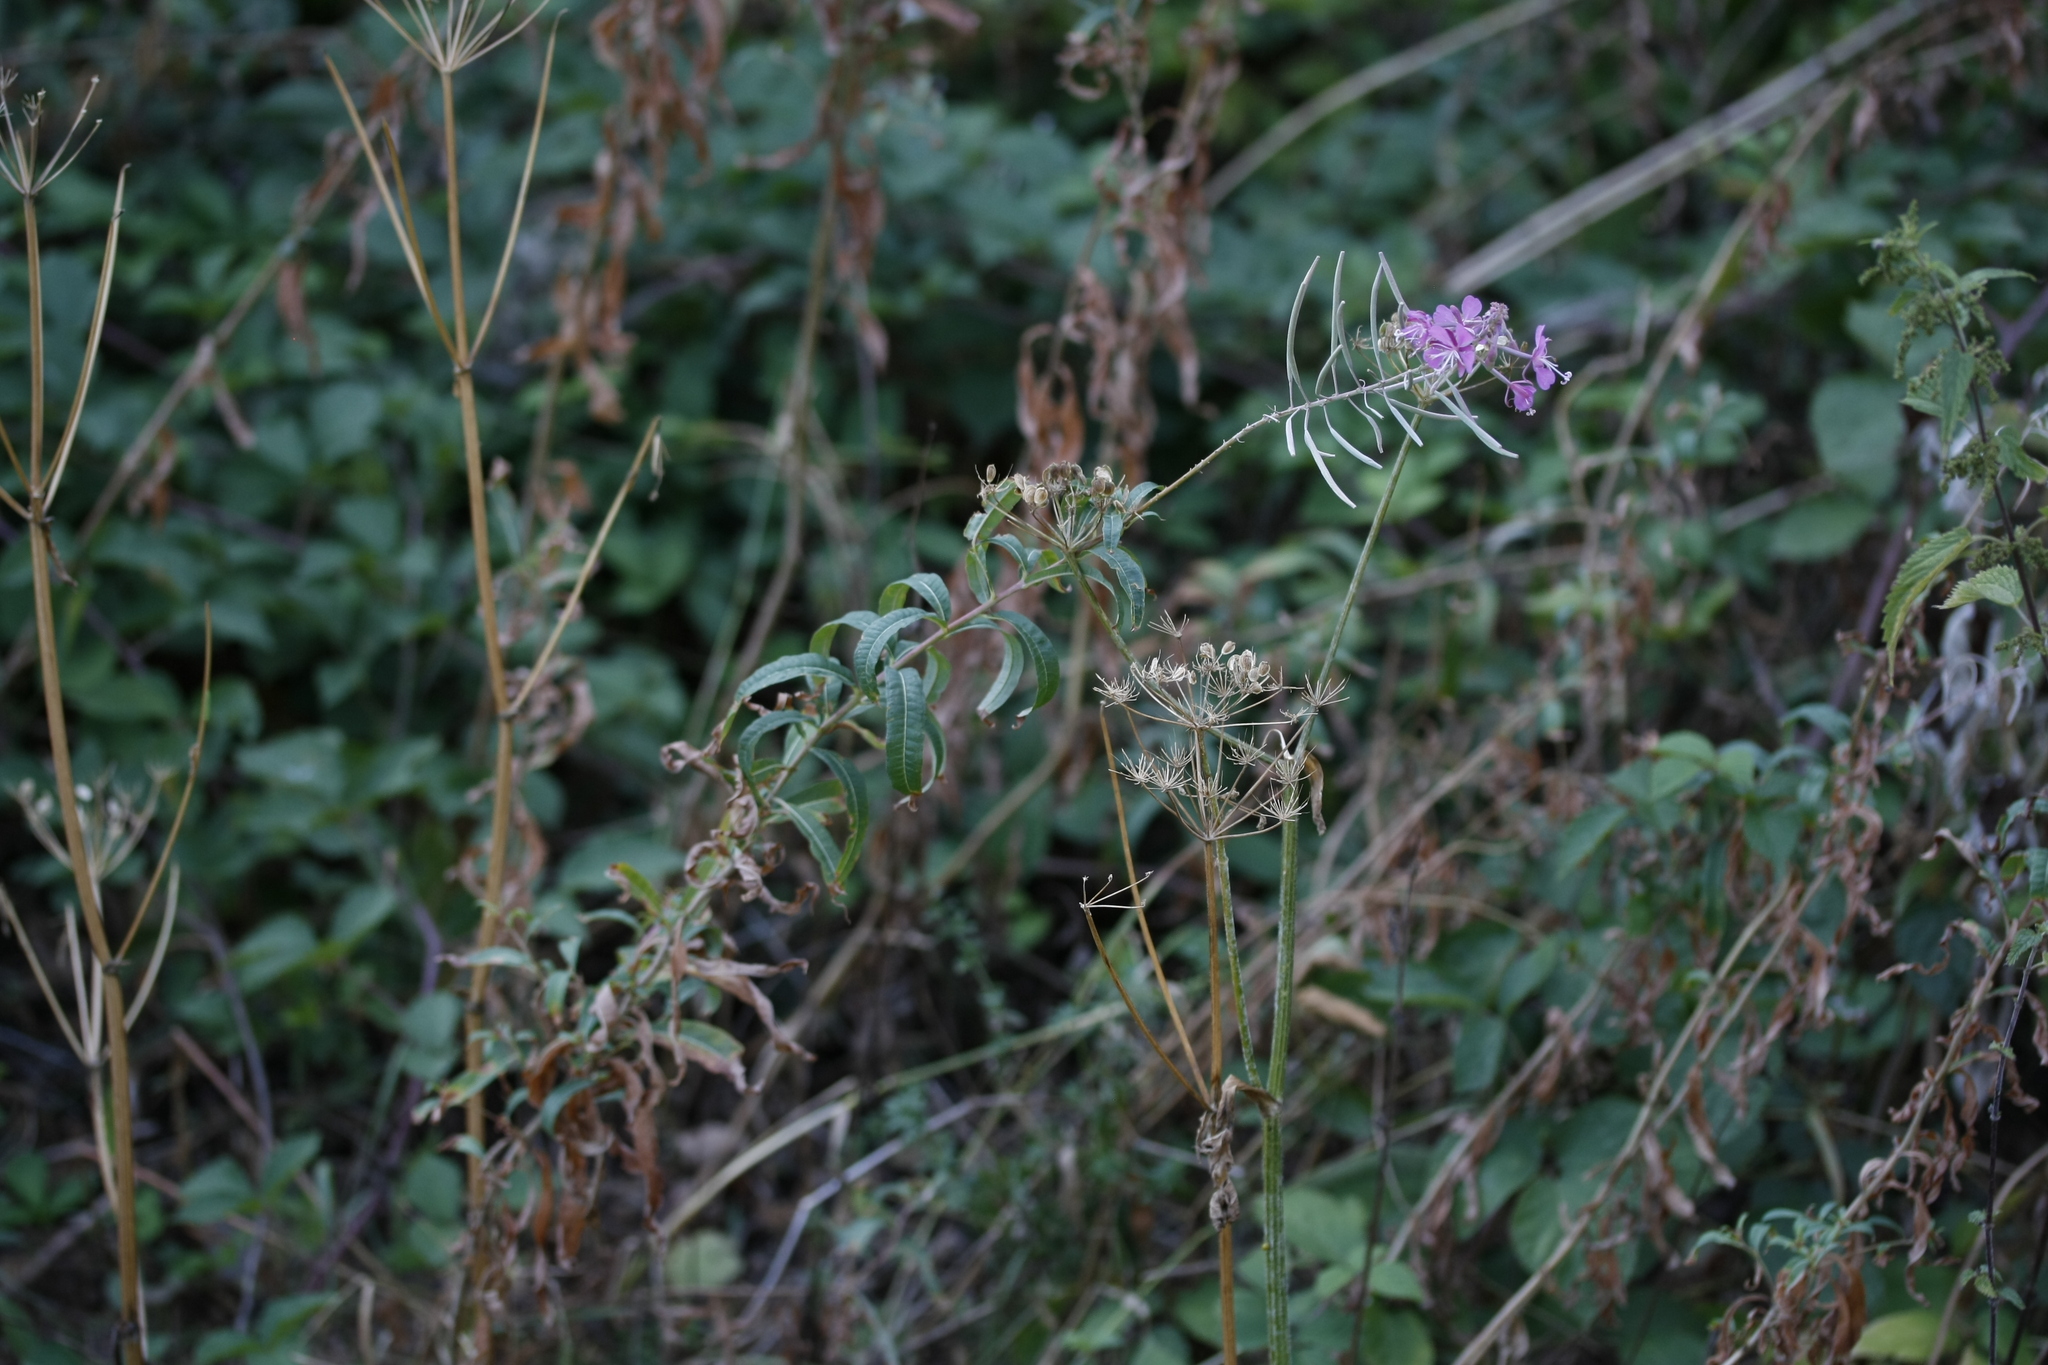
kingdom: Plantae
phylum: Tracheophyta
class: Magnoliopsida
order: Myrtales
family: Onagraceae
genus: Chamaenerion
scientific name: Chamaenerion angustifolium
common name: Fireweed
